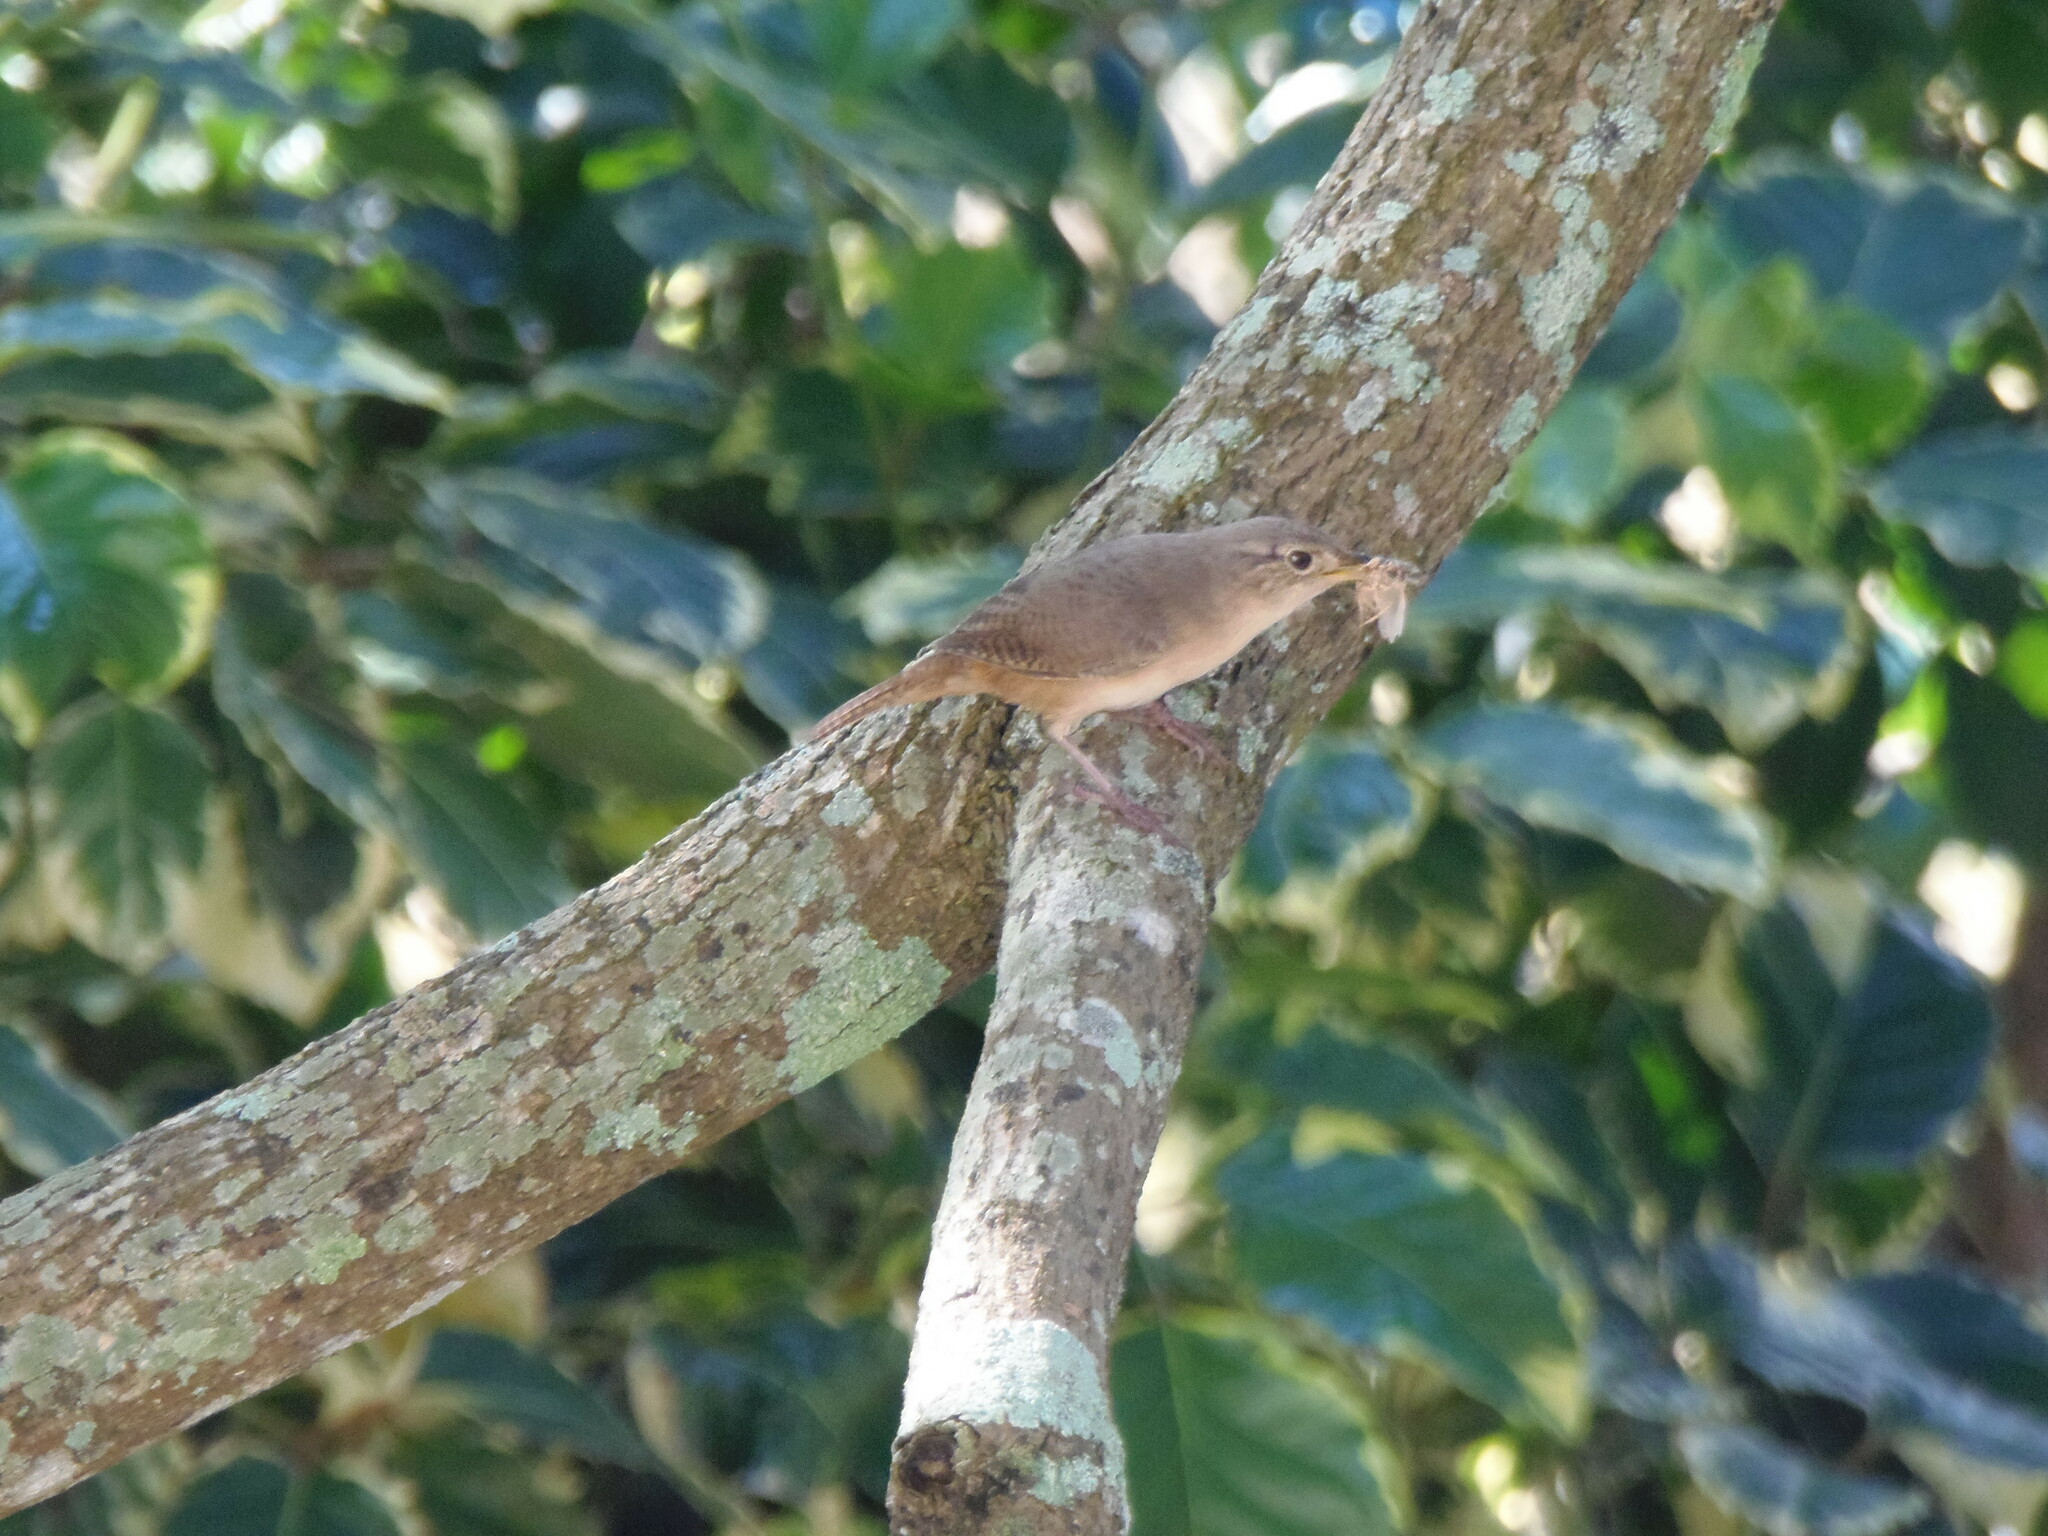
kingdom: Animalia
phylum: Chordata
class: Aves
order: Passeriformes
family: Troglodytidae
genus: Troglodytes
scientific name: Troglodytes aedon
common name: House wren
